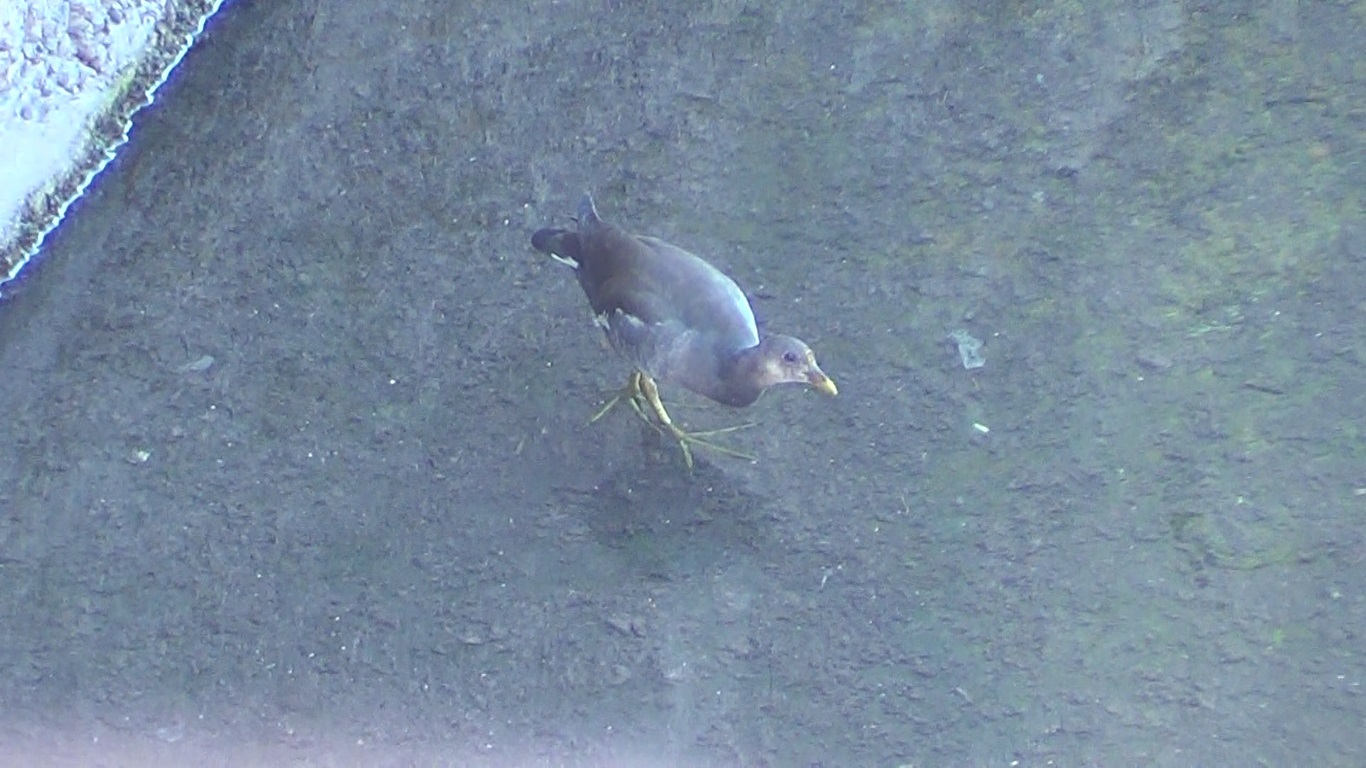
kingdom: Animalia
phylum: Chordata
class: Aves
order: Gruiformes
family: Rallidae
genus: Gallinula
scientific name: Gallinula chloropus
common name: Common moorhen
